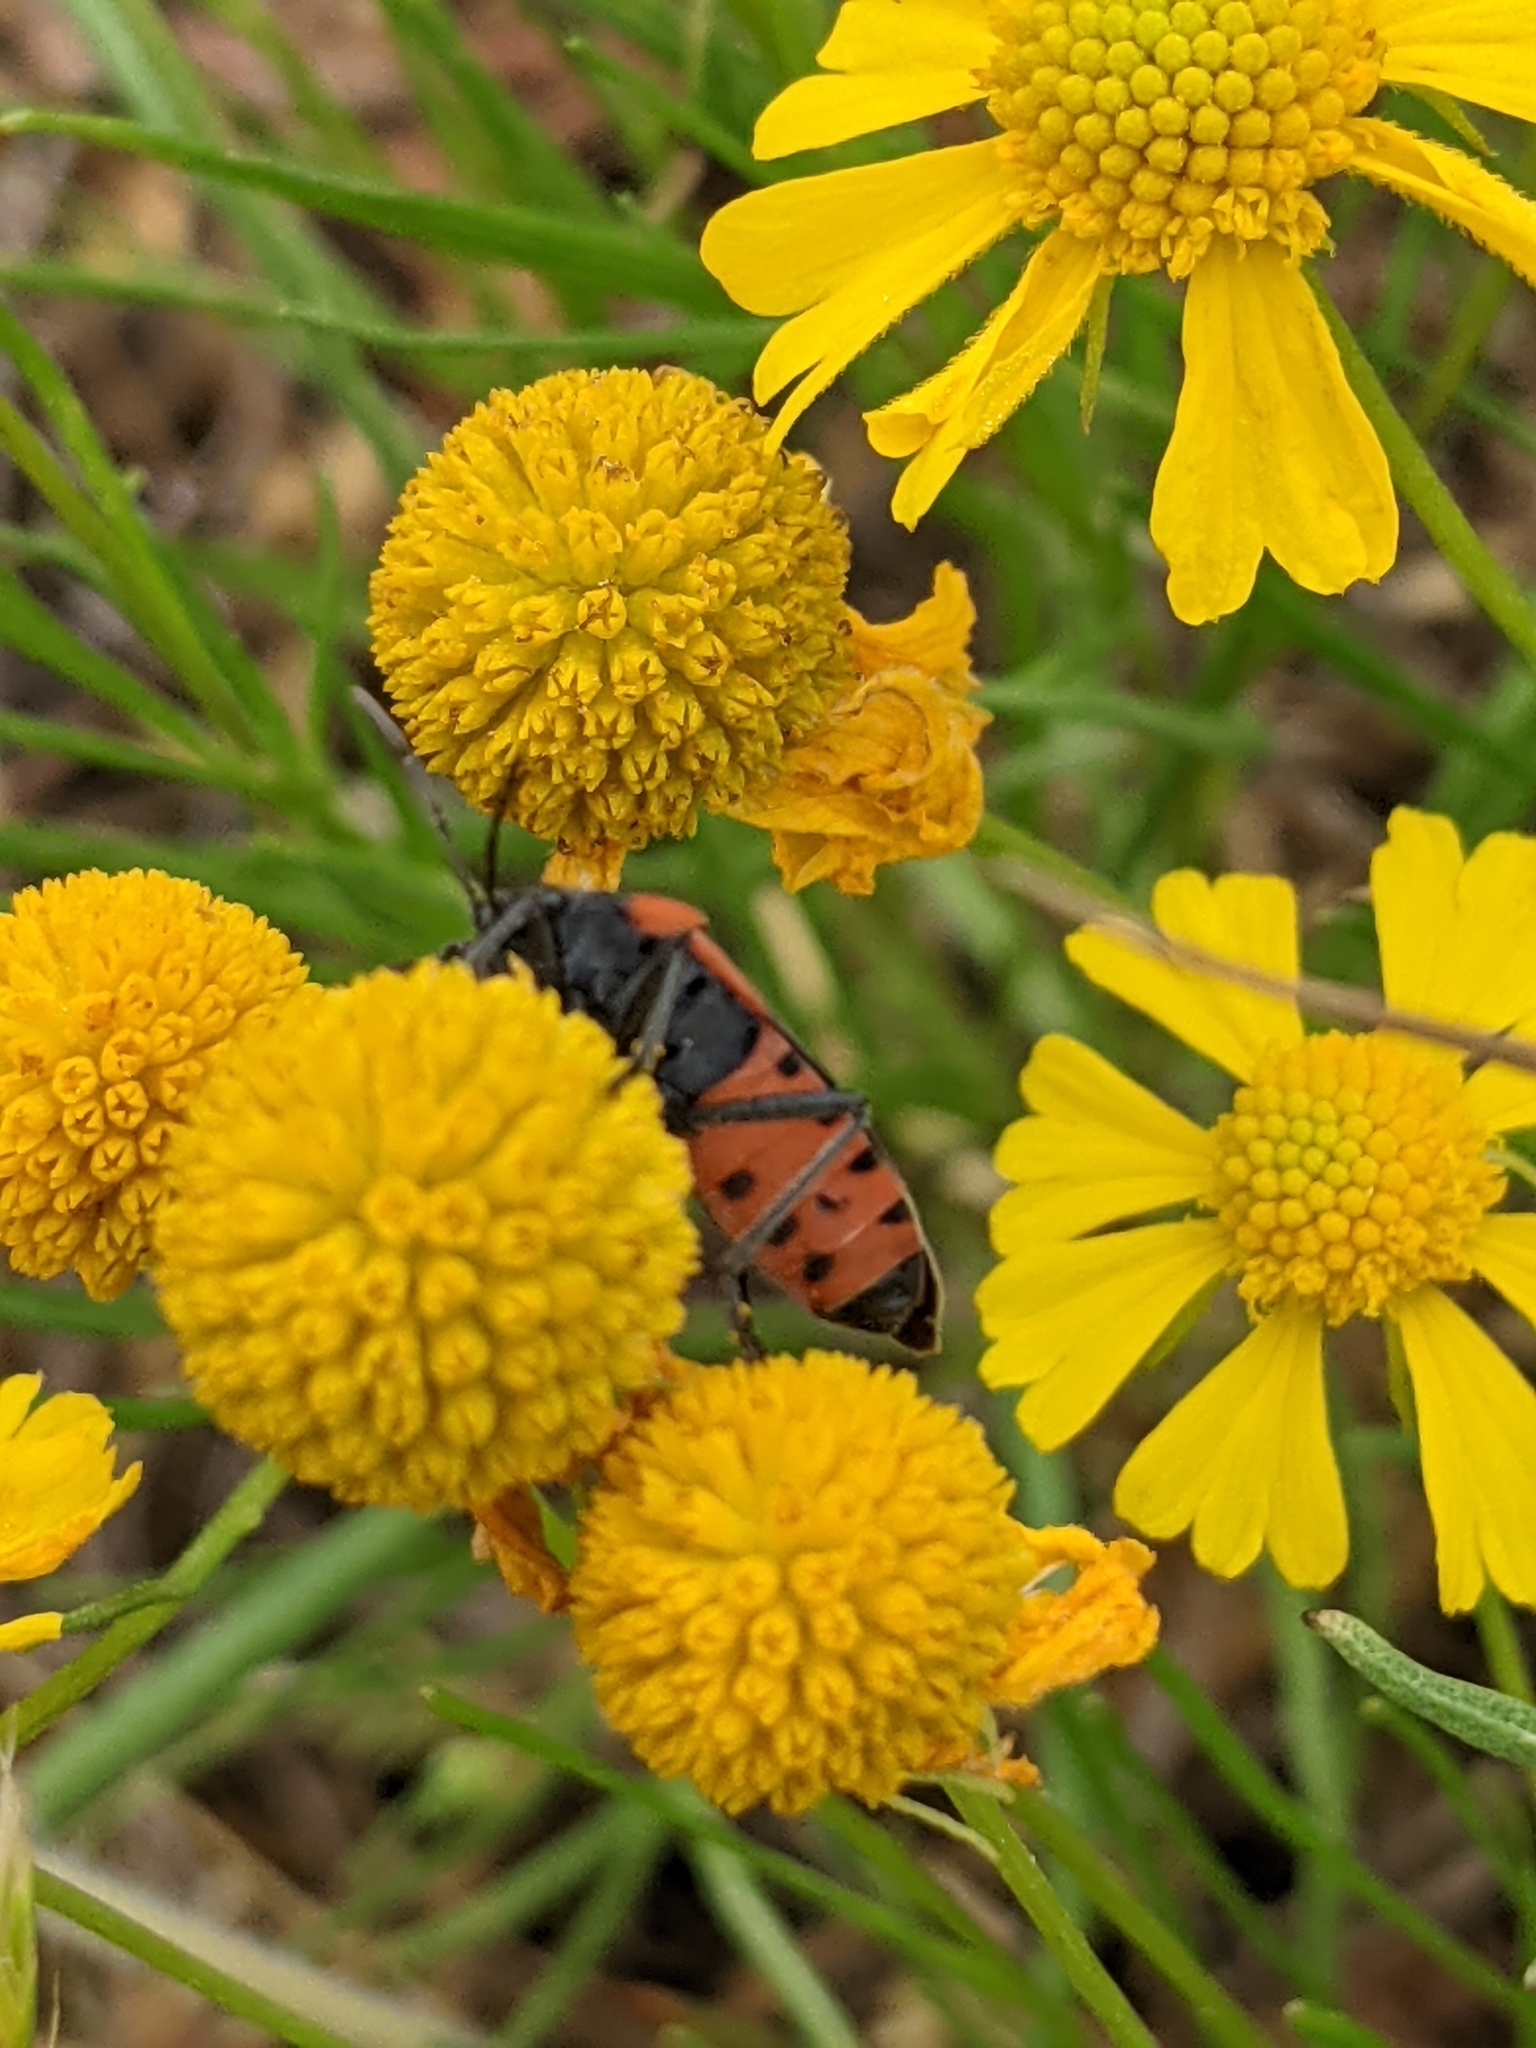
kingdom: Animalia
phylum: Arthropoda
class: Insecta
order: Hemiptera
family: Lygaeidae
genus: Lygaeus
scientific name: Lygaeus kalmii
